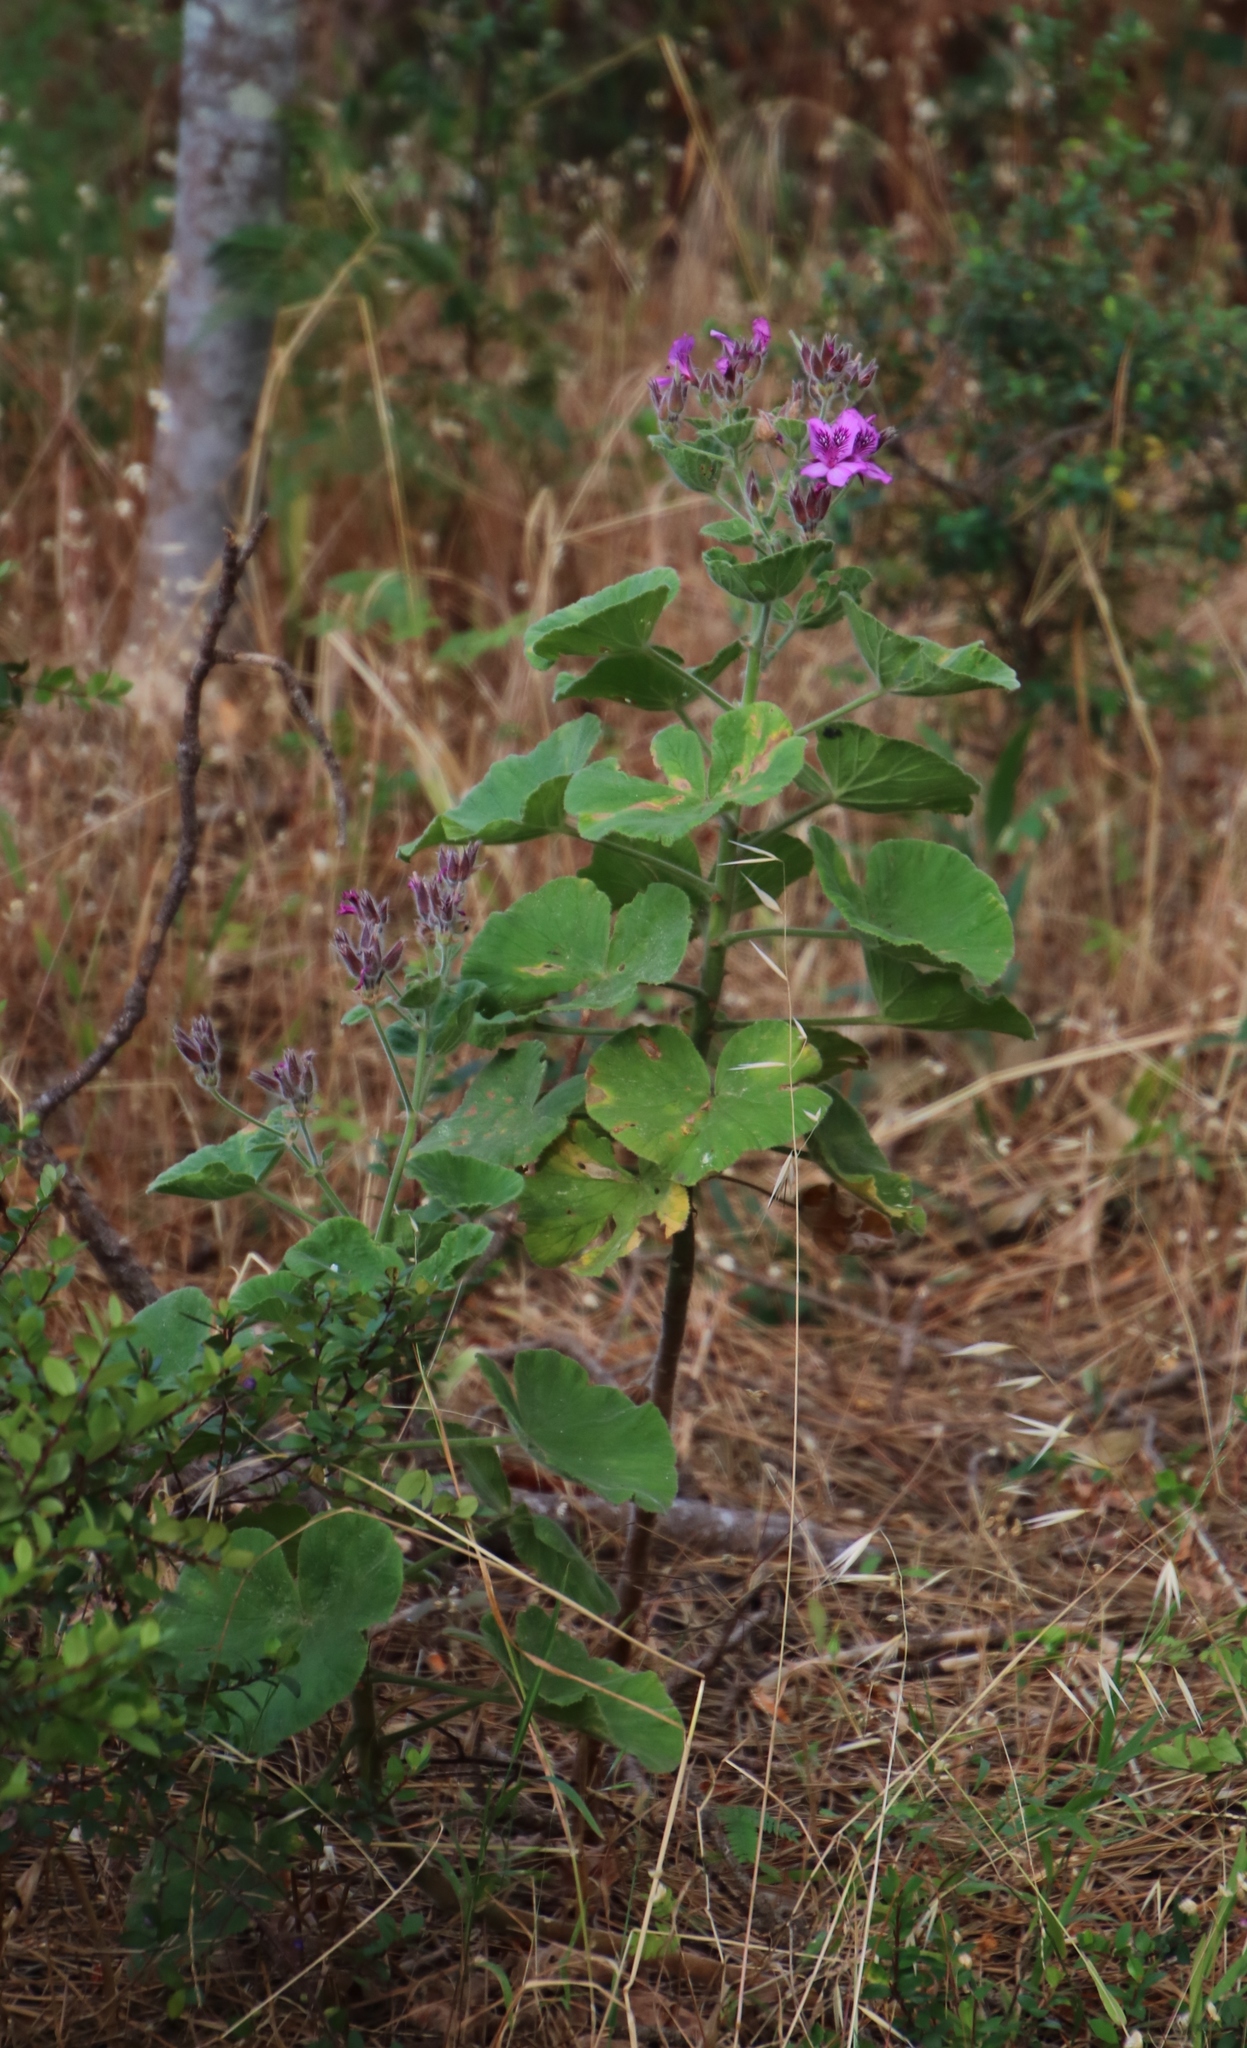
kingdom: Plantae
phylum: Tracheophyta
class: Magnoliopsida
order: Geraniales
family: Geraniaceae
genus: Pelargonium
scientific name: Pelargonium cucullatum
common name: Tree pelargonium
